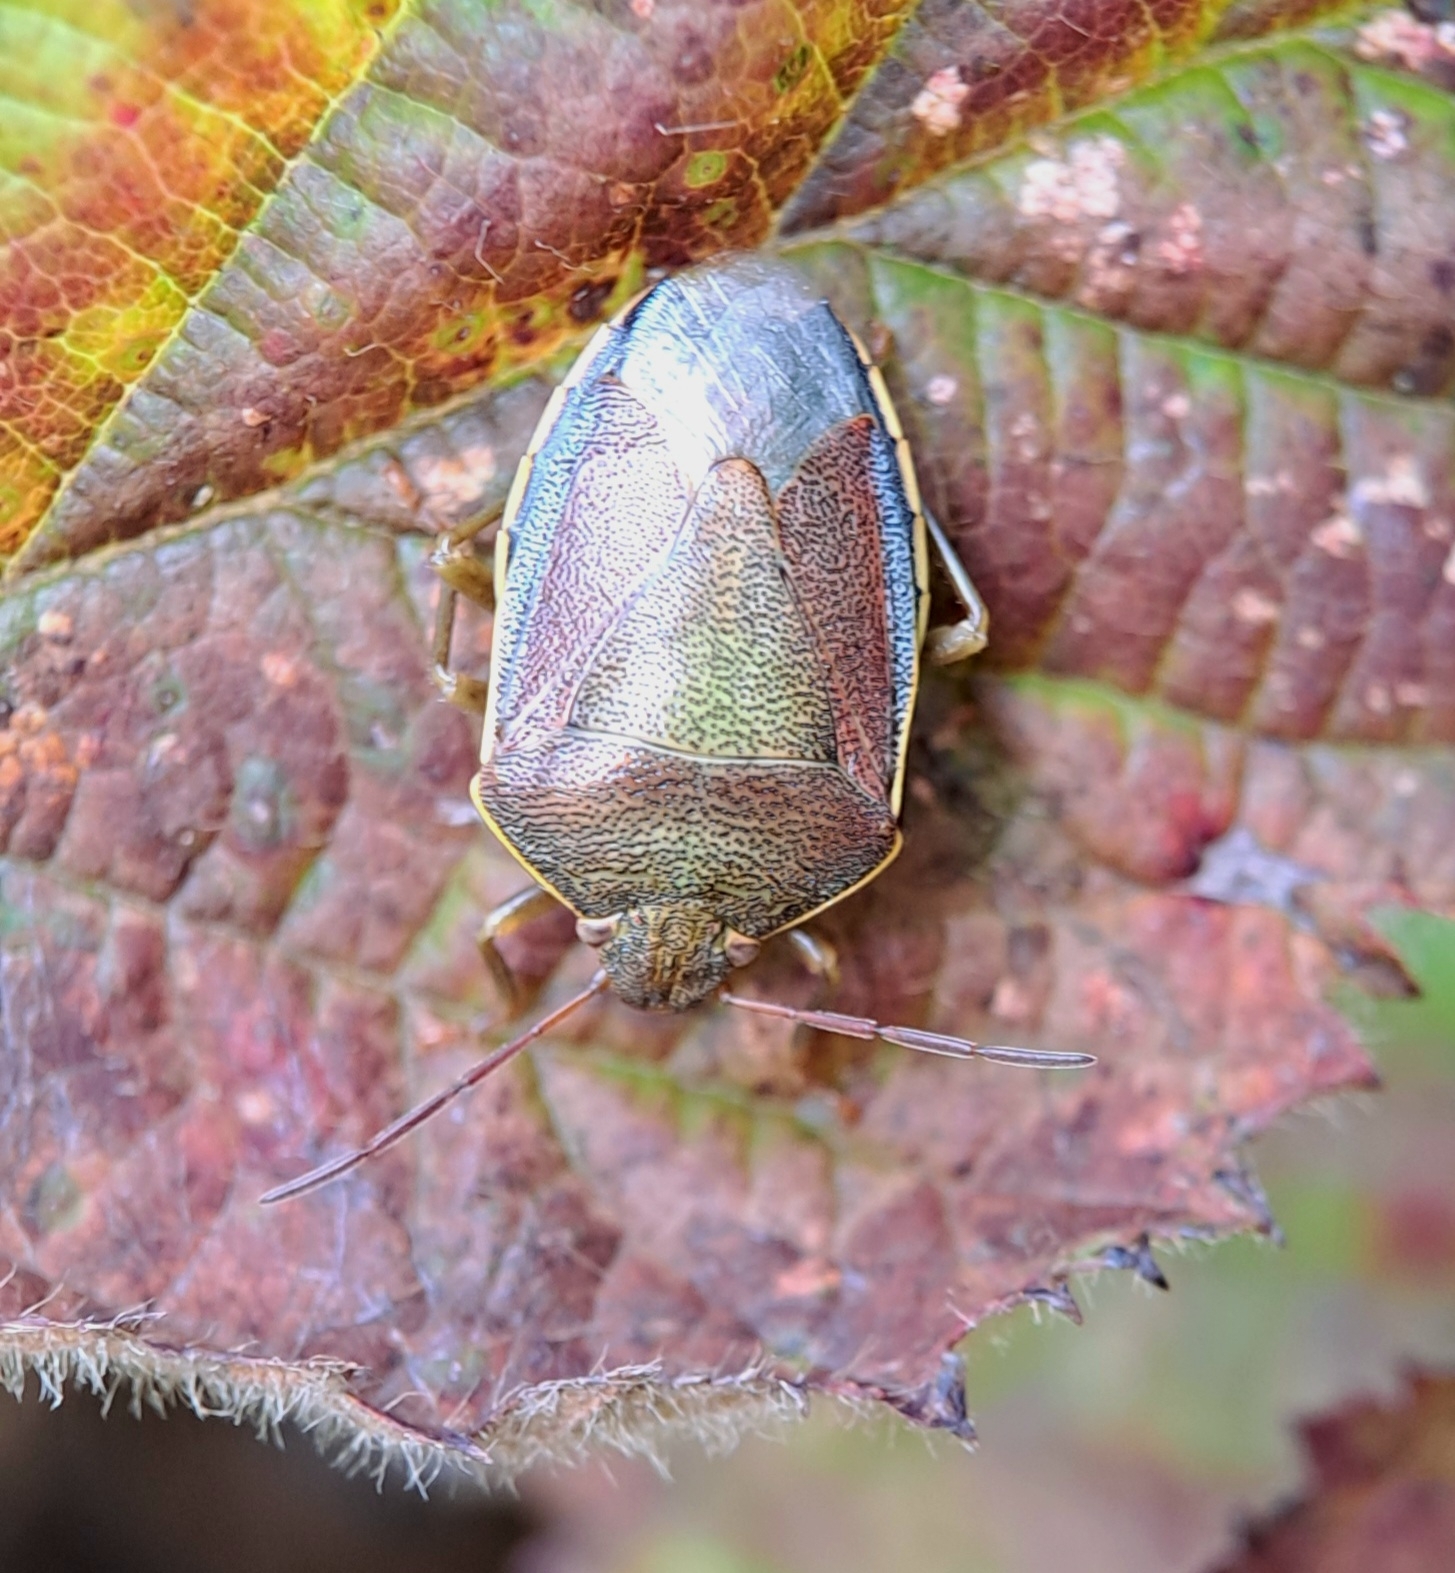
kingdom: Animalia
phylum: Arthropoda
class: Insecta
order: Hemiptera
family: Pentatomidae
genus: Piezodorus
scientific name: Piezodorus lituratus
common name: Stink bug
